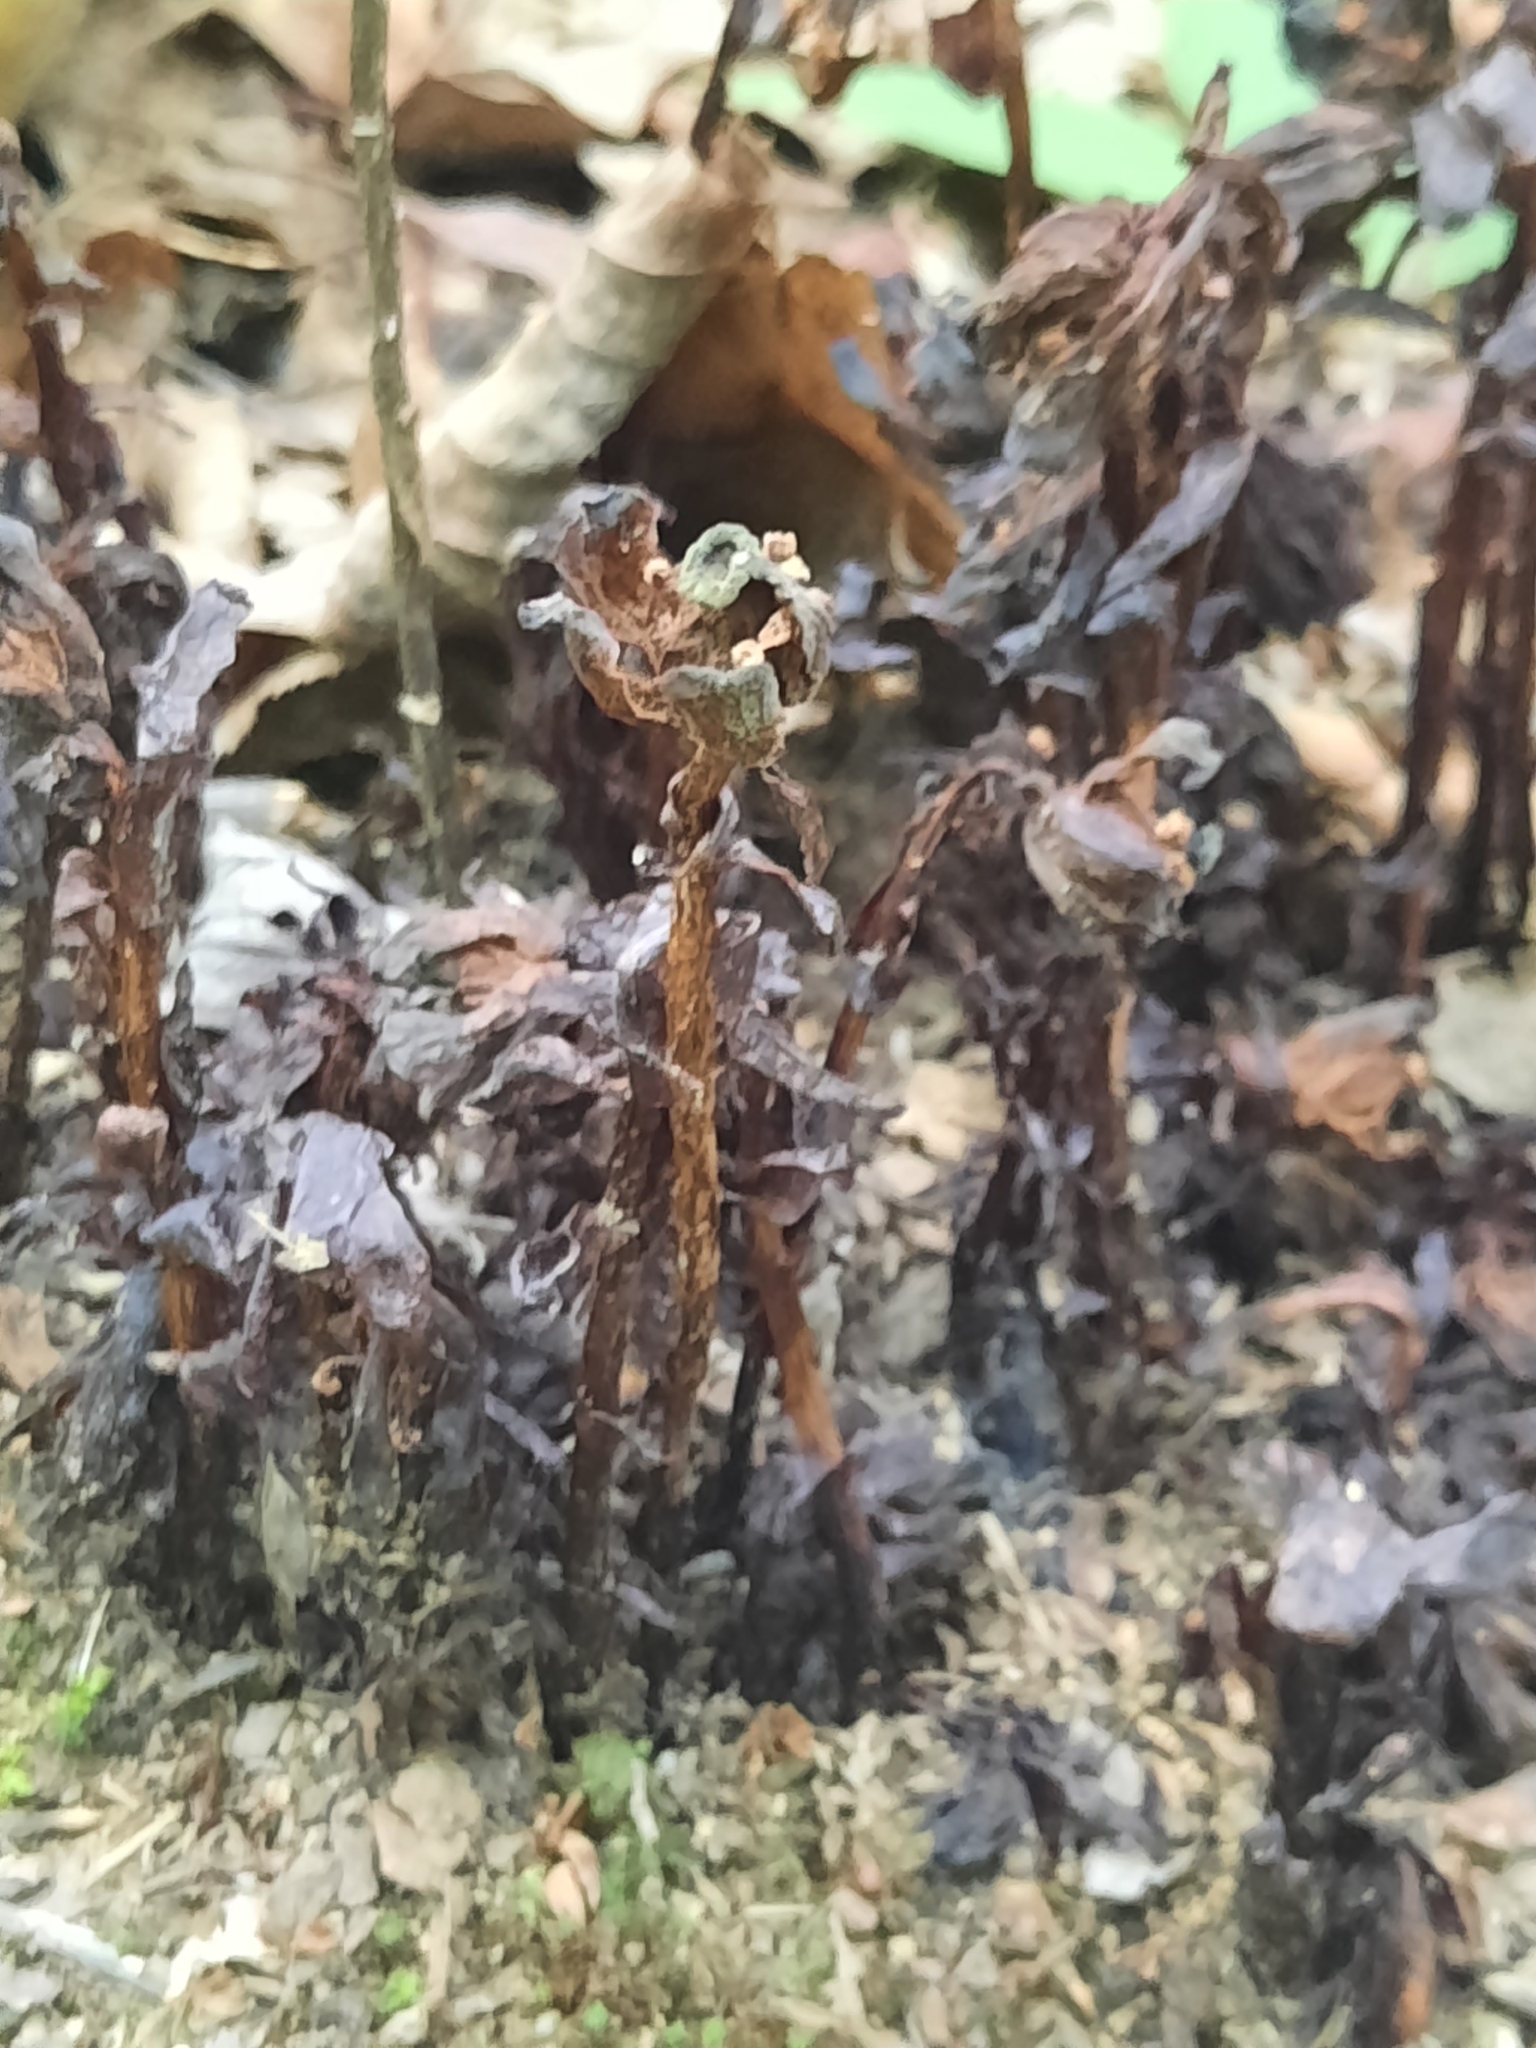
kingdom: Plantae
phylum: Tracheophyta
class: Magnoliopsida
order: Ericales
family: Ericaceae
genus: Monotropa
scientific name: Monotropa uniflora
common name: Convulsion root
